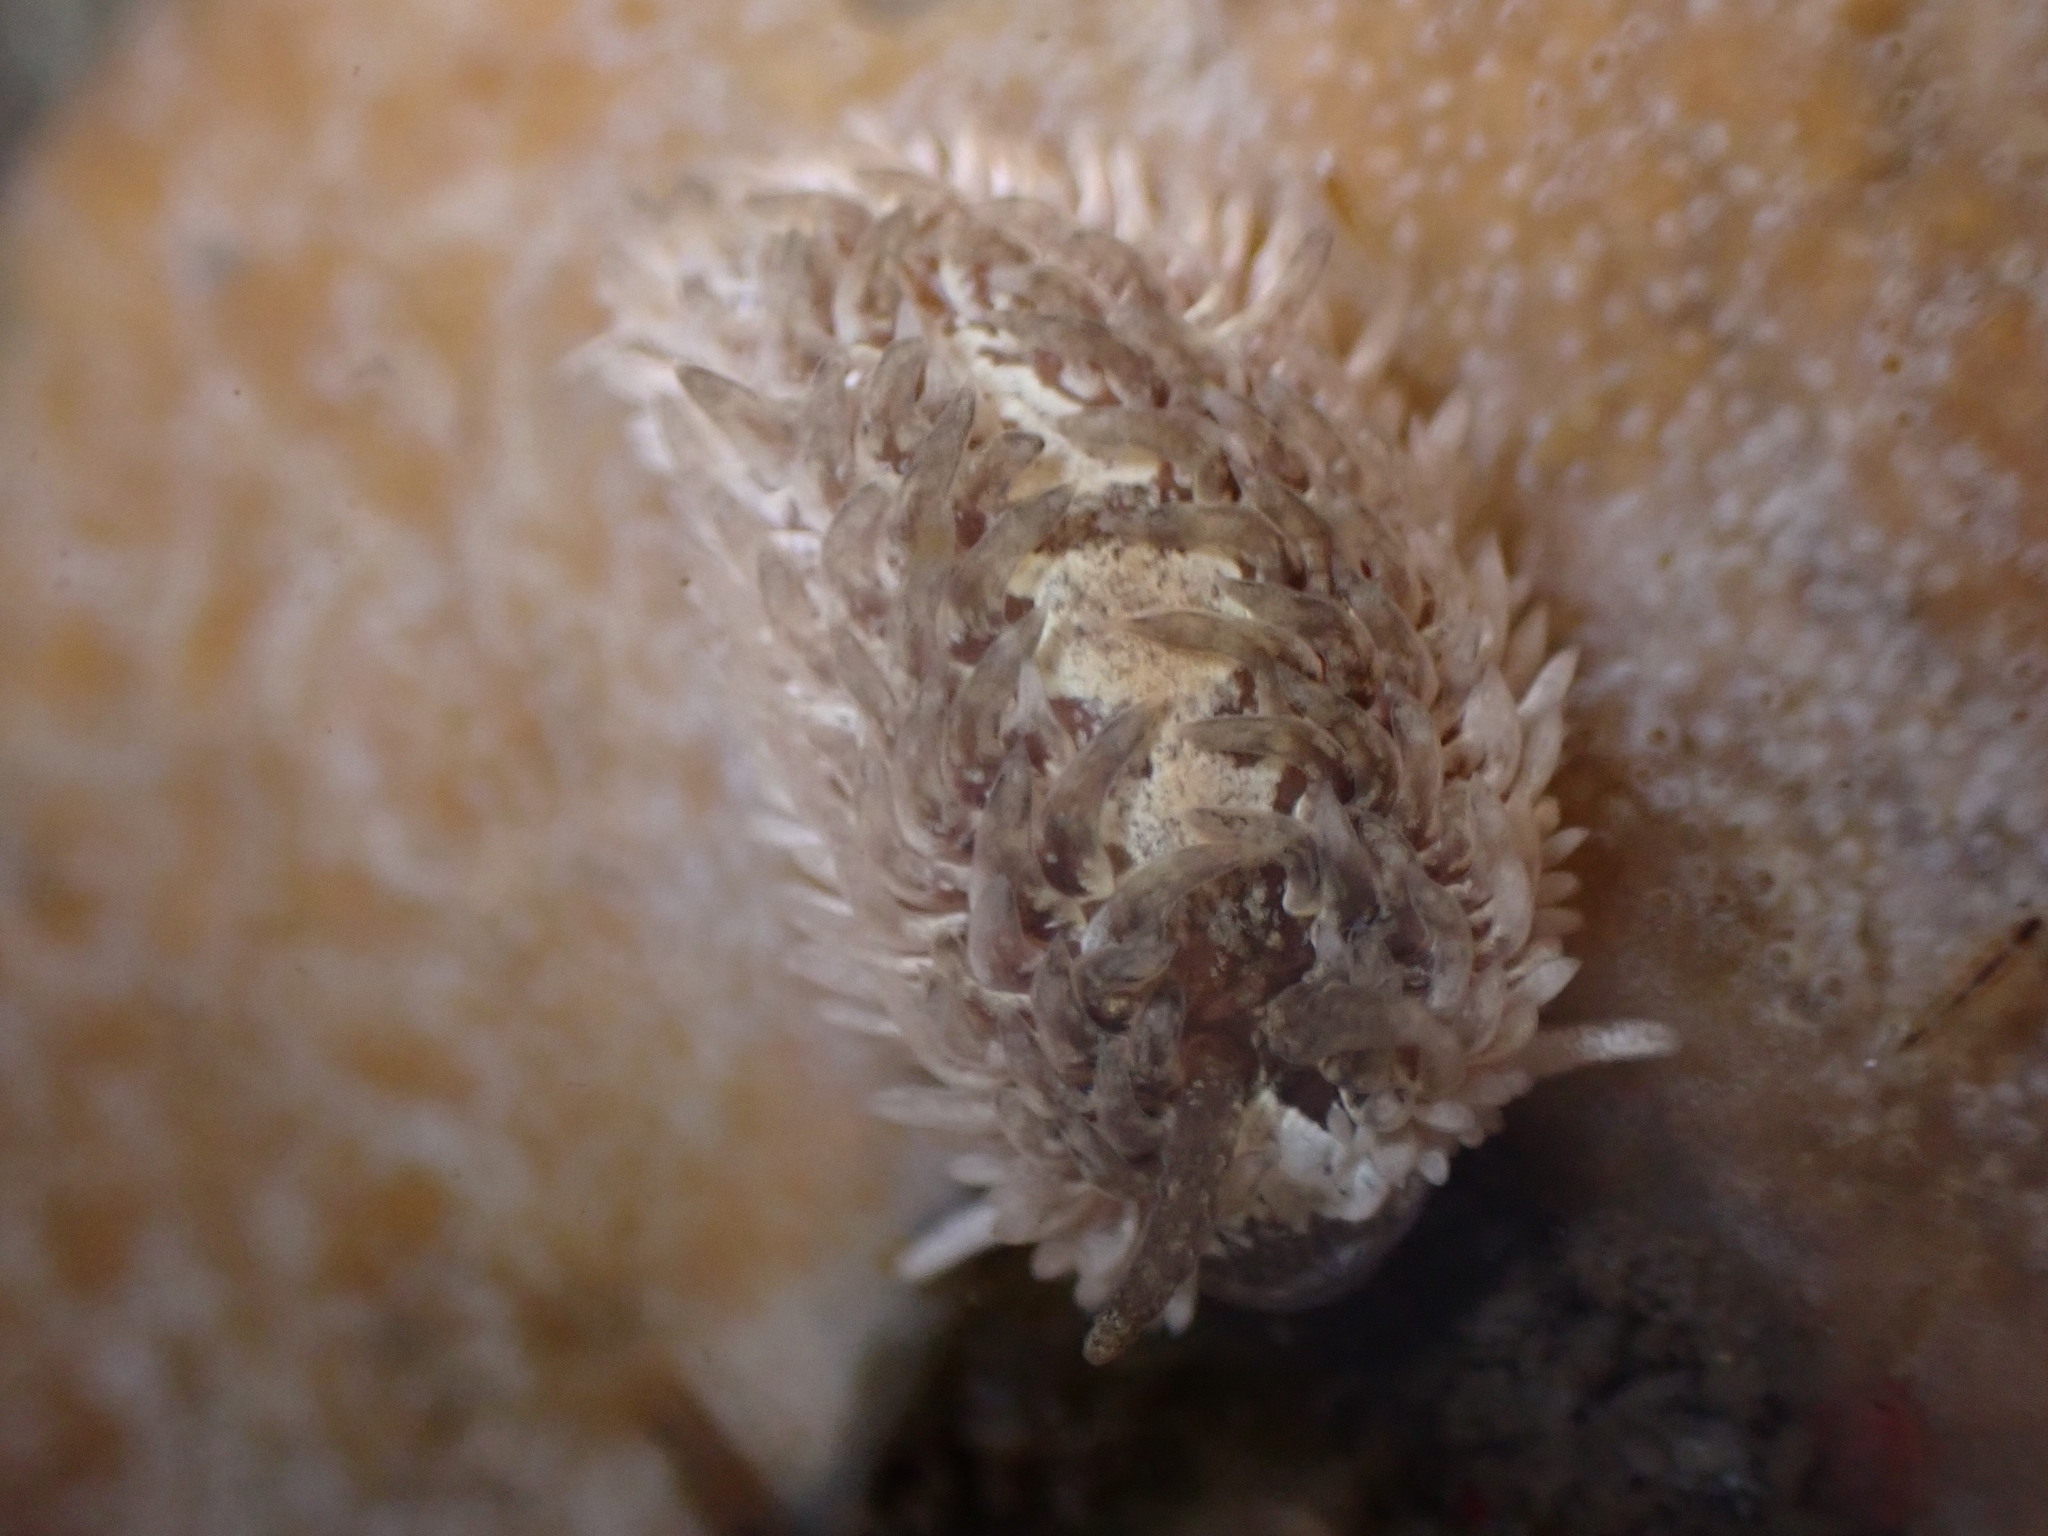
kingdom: Animalia
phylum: Mollusca
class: Gastropoda
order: Nudibranchia
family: Aeolidiidae
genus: Aeolidia
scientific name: Aeolidia loui
